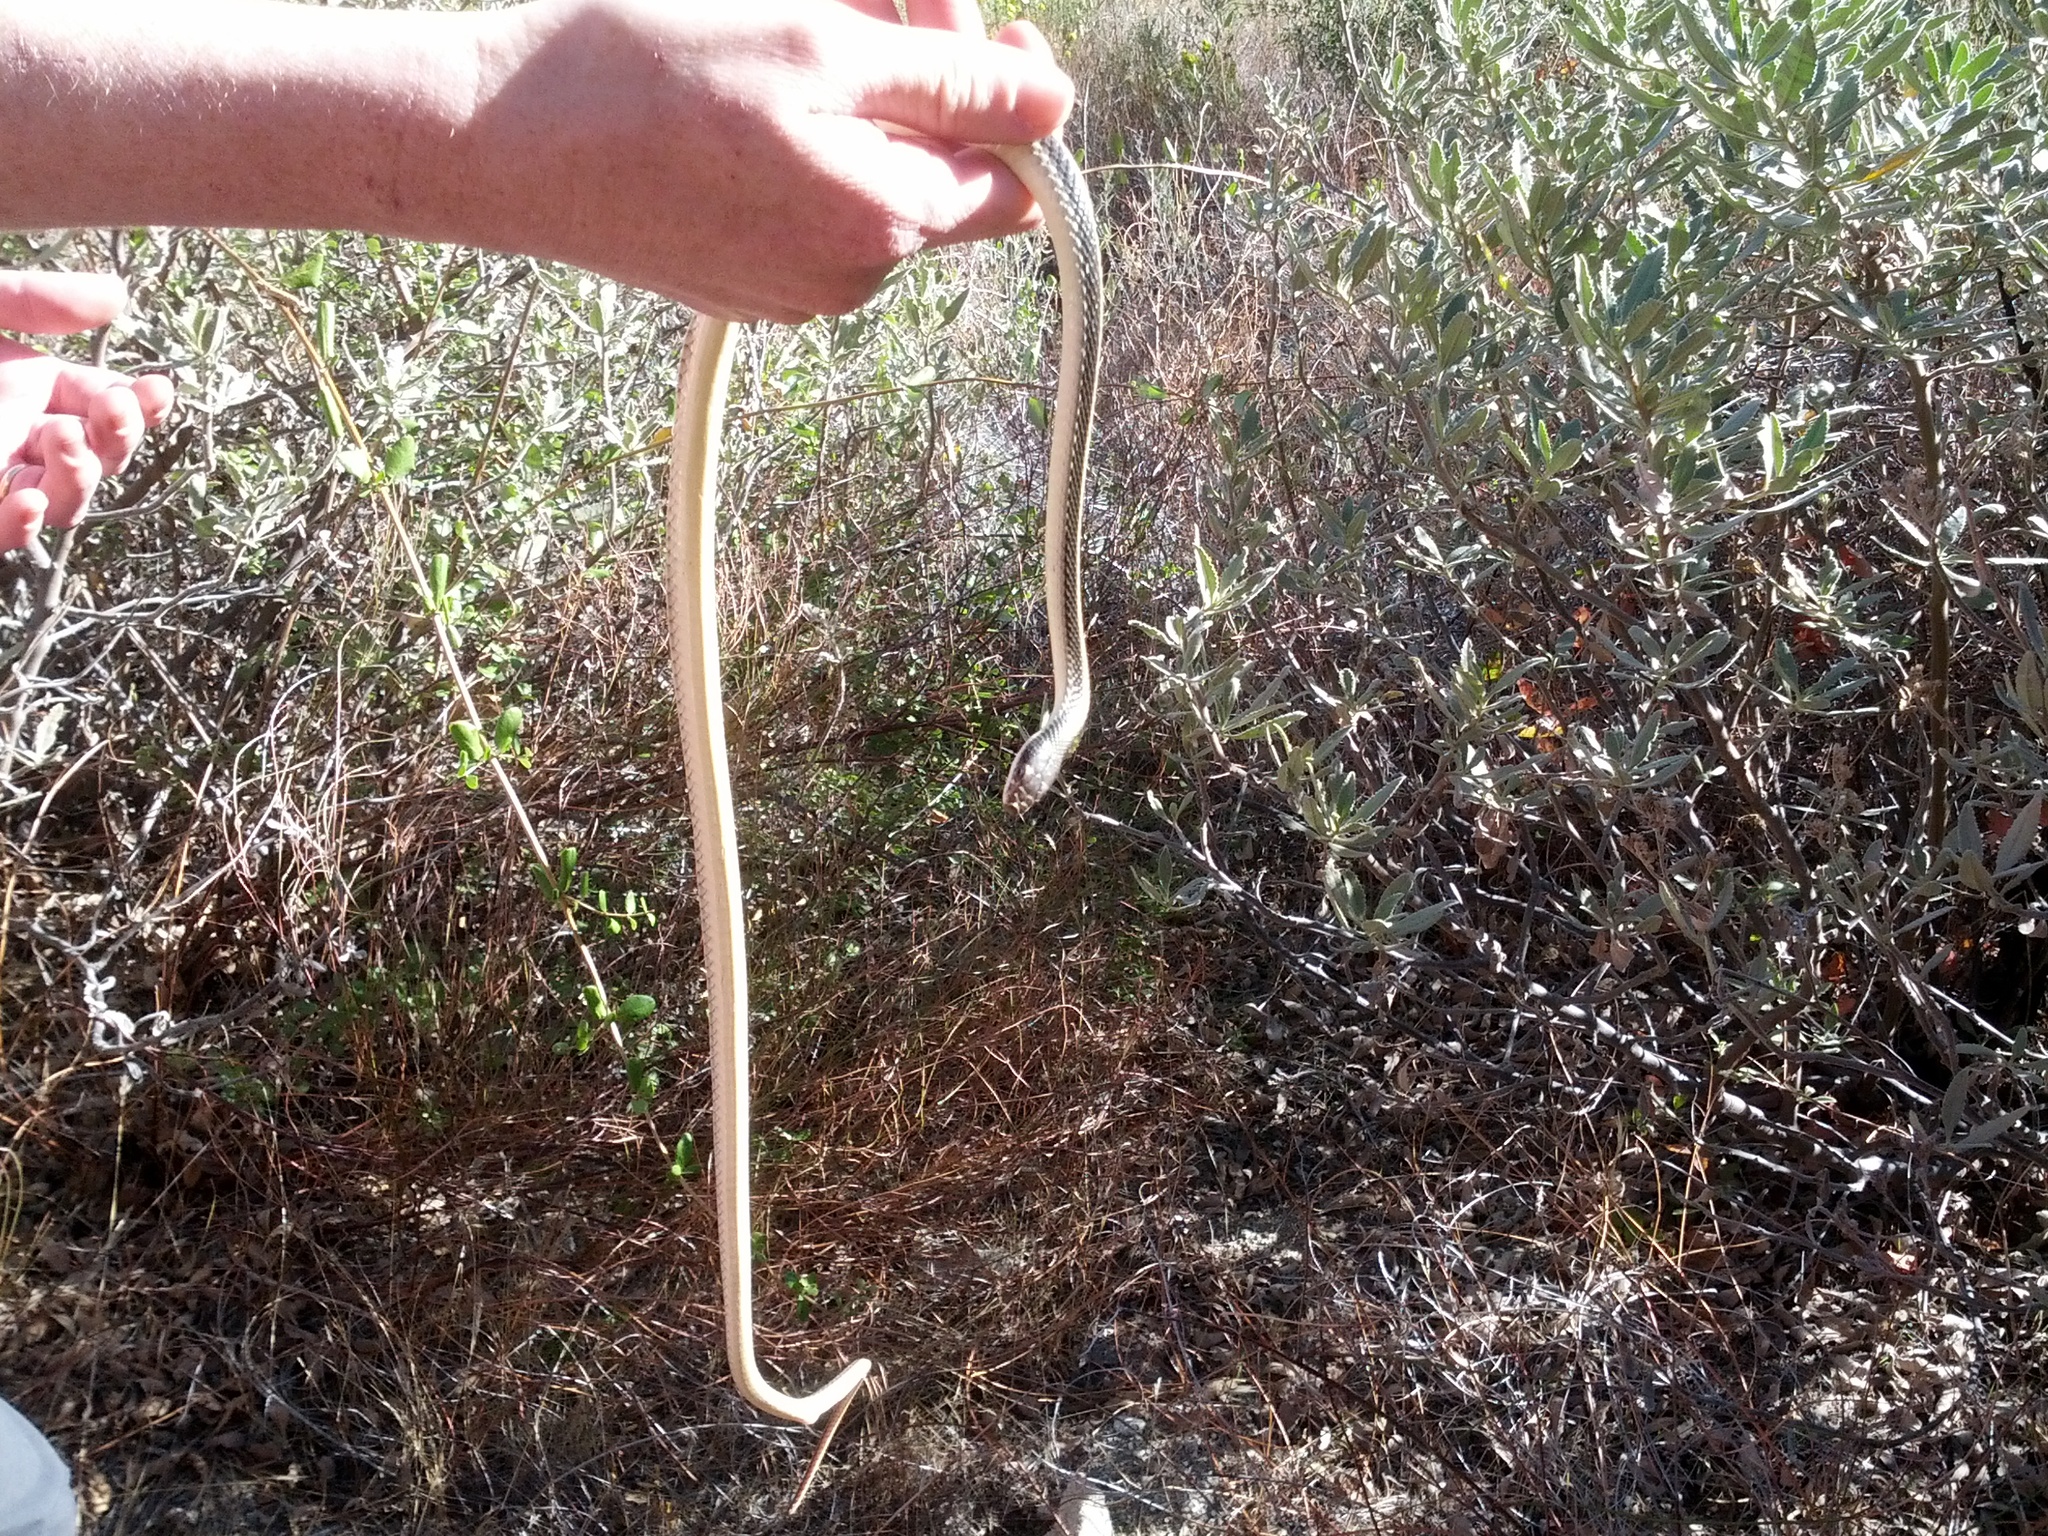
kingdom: Animalia
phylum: Chordata
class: Squamata
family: Colubridae
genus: Salvadora
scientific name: Salvadora hexalepis
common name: Western patchnose snake
